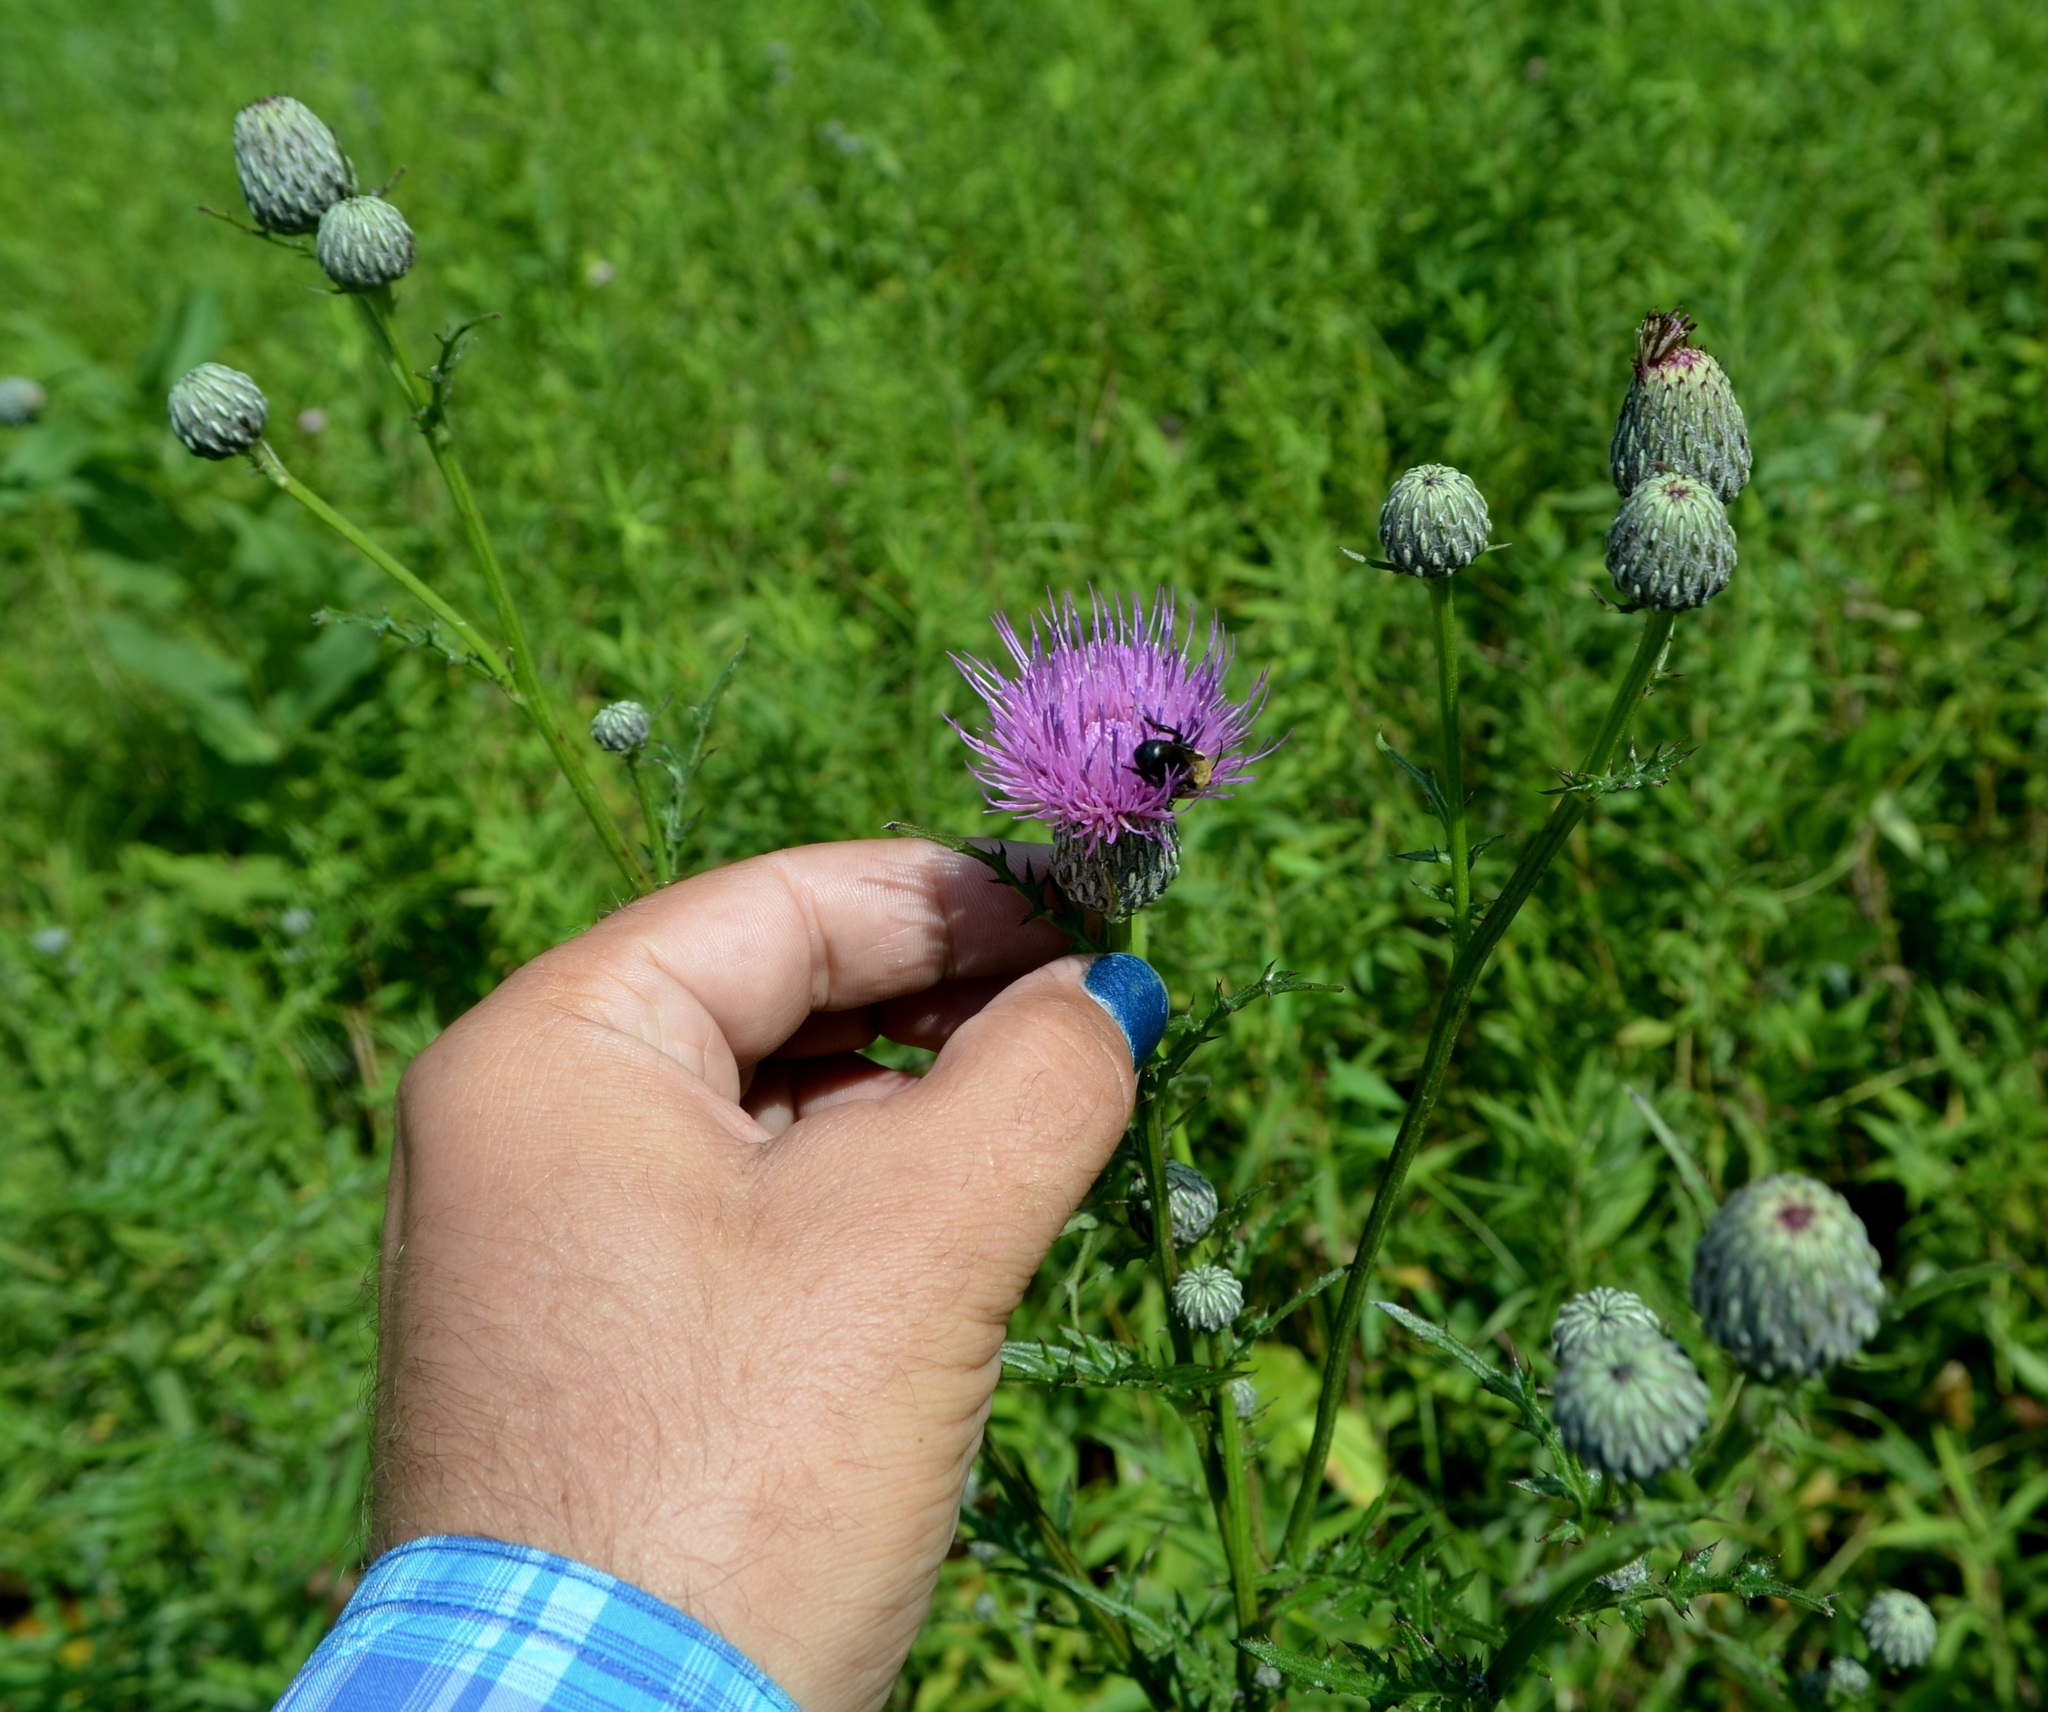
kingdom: Plantae
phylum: Tracheophyta
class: Magnoliopsida
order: Asterales
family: Asteraceae
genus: Cirsium
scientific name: Cirsium muticum
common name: Dunce-nettle
